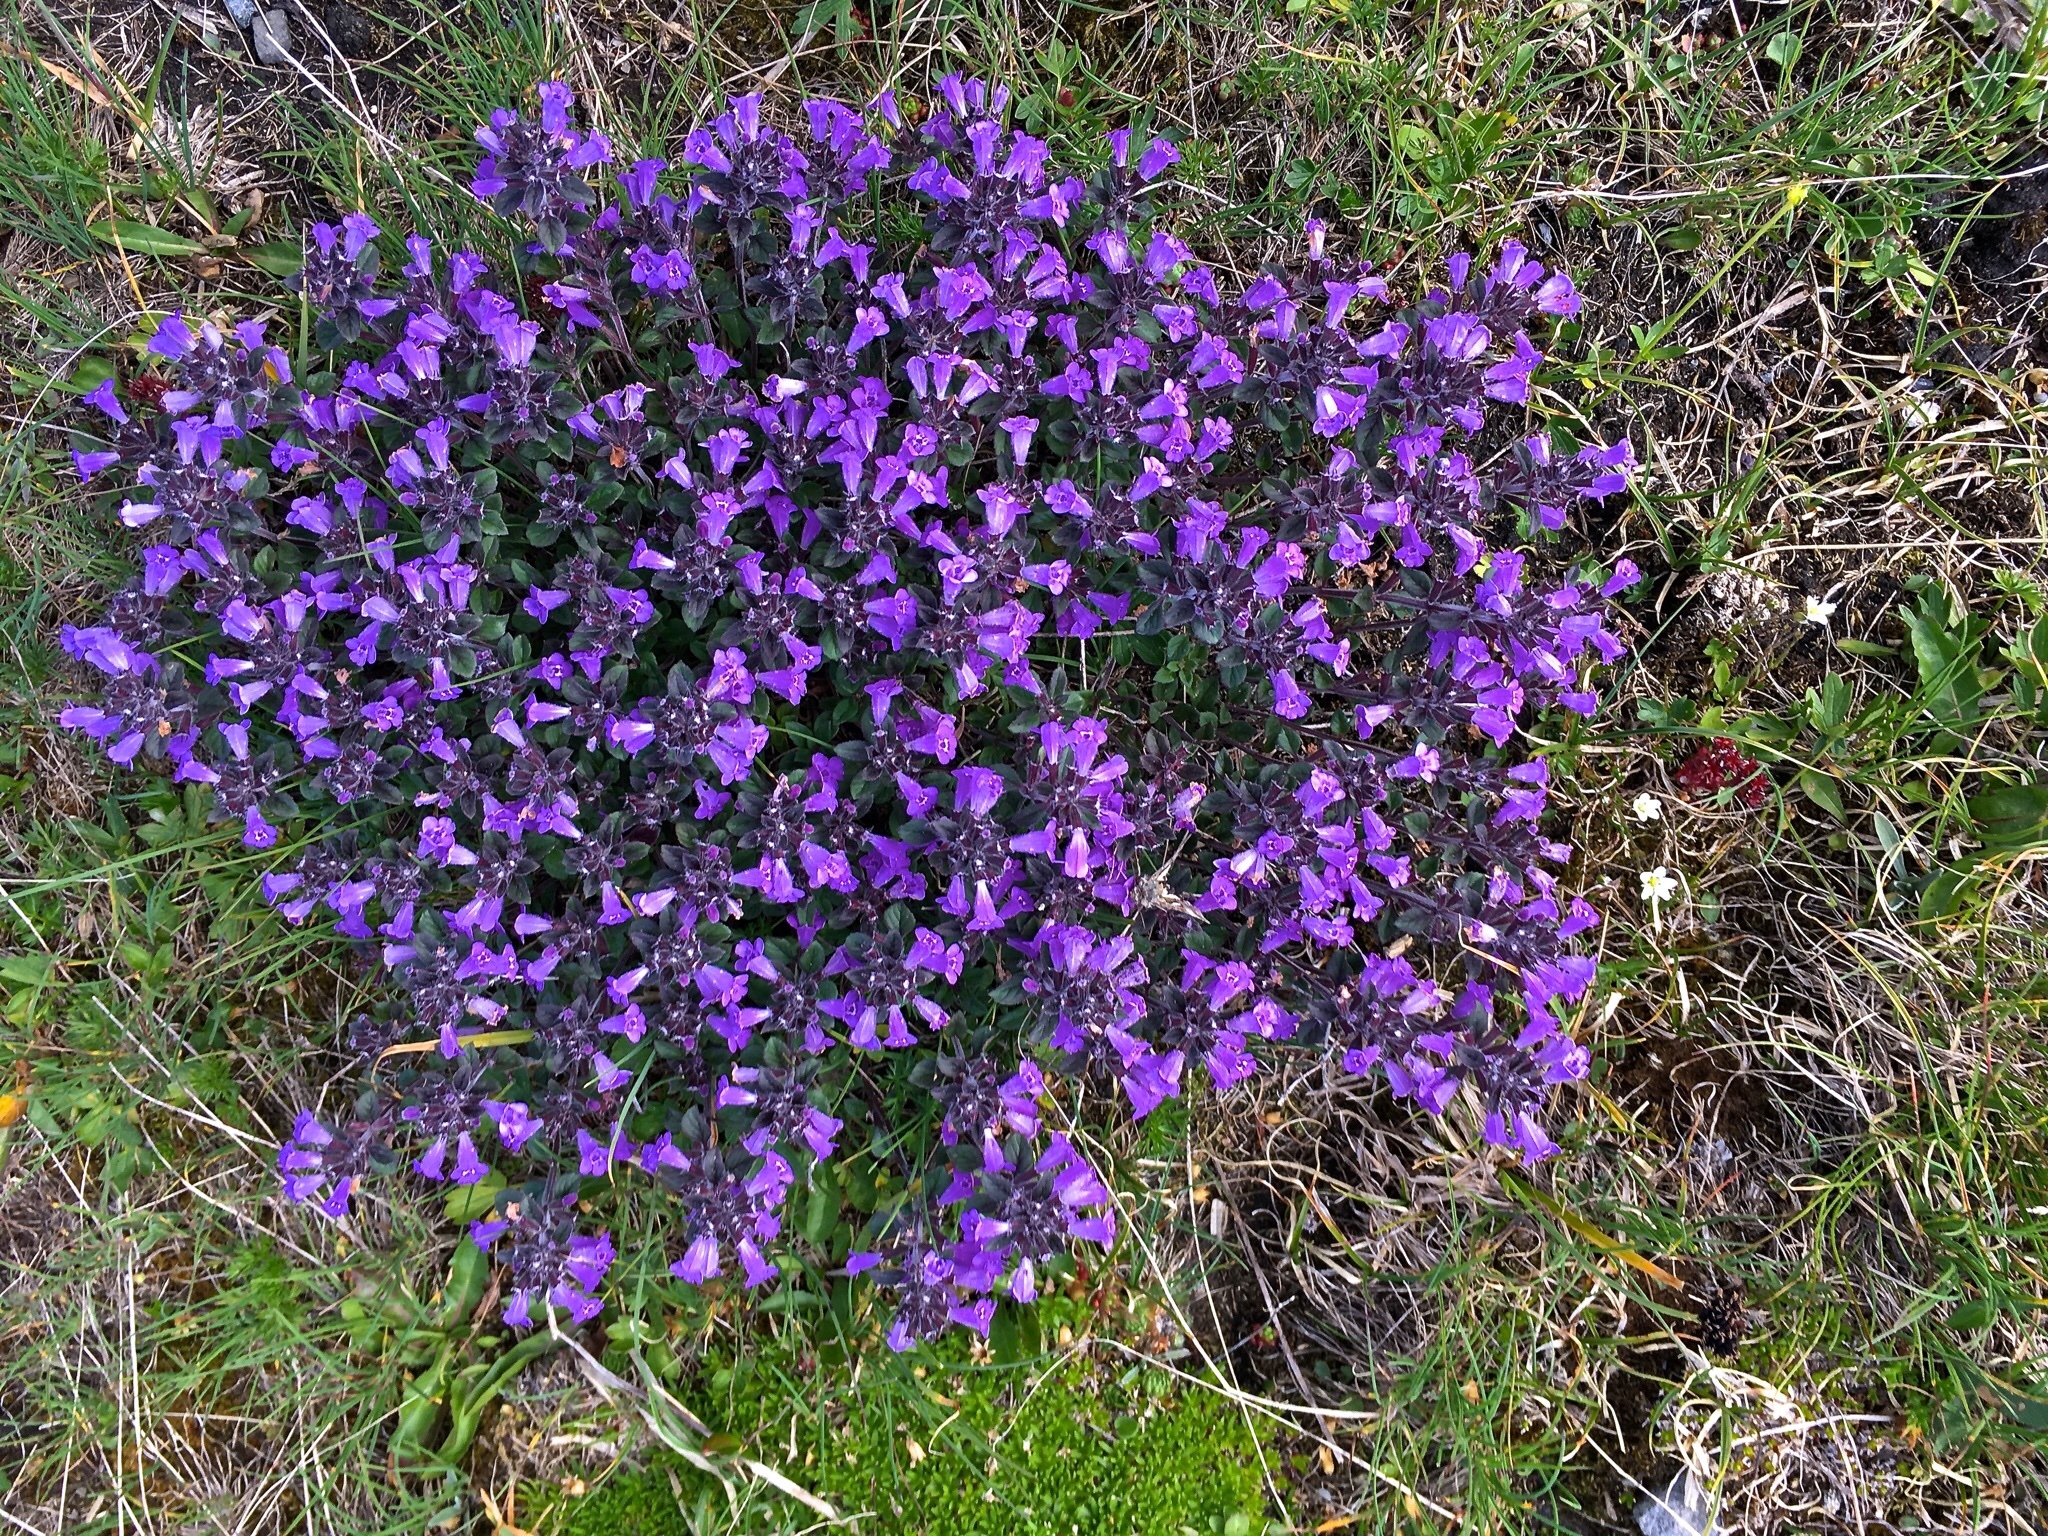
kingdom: Plantae
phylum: Tracheophyta
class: Magnoliopsida
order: Lamiales
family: Lamiaceae
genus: Clinopodium
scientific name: Clinopodium alpinum
